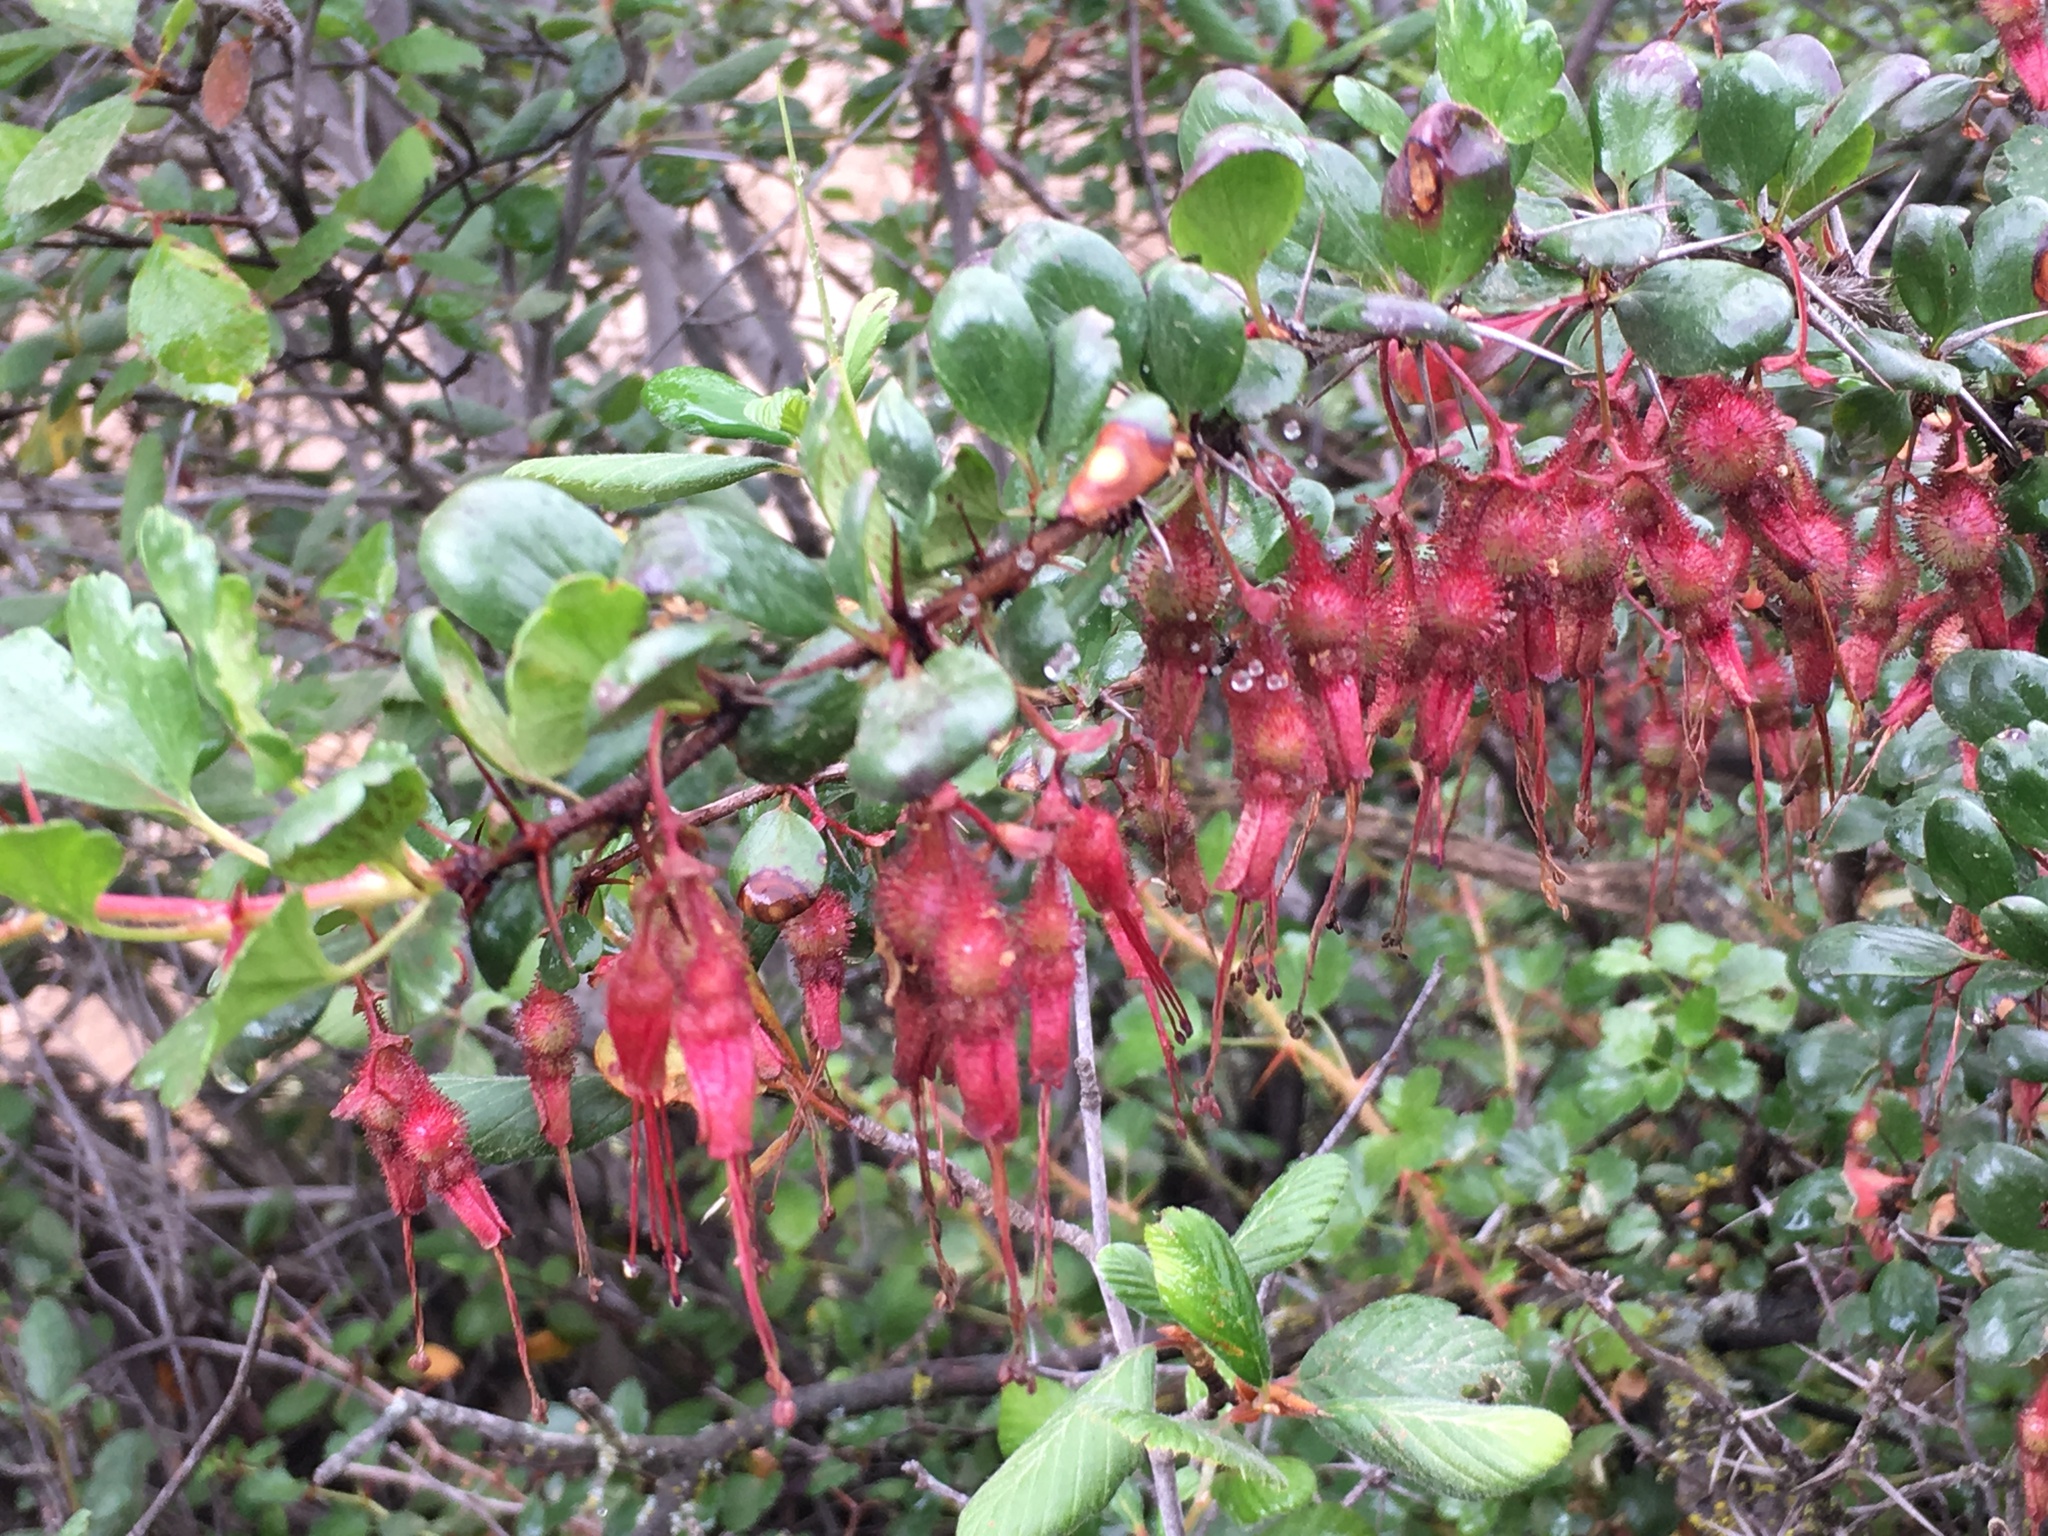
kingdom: Plantae
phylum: Tracheophyta
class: Magnoliopsida
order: Saxifragales
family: Grossulariaceae
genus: Ribes
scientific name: Ribes speciosum
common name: Fuchsia-flower gooseberry
